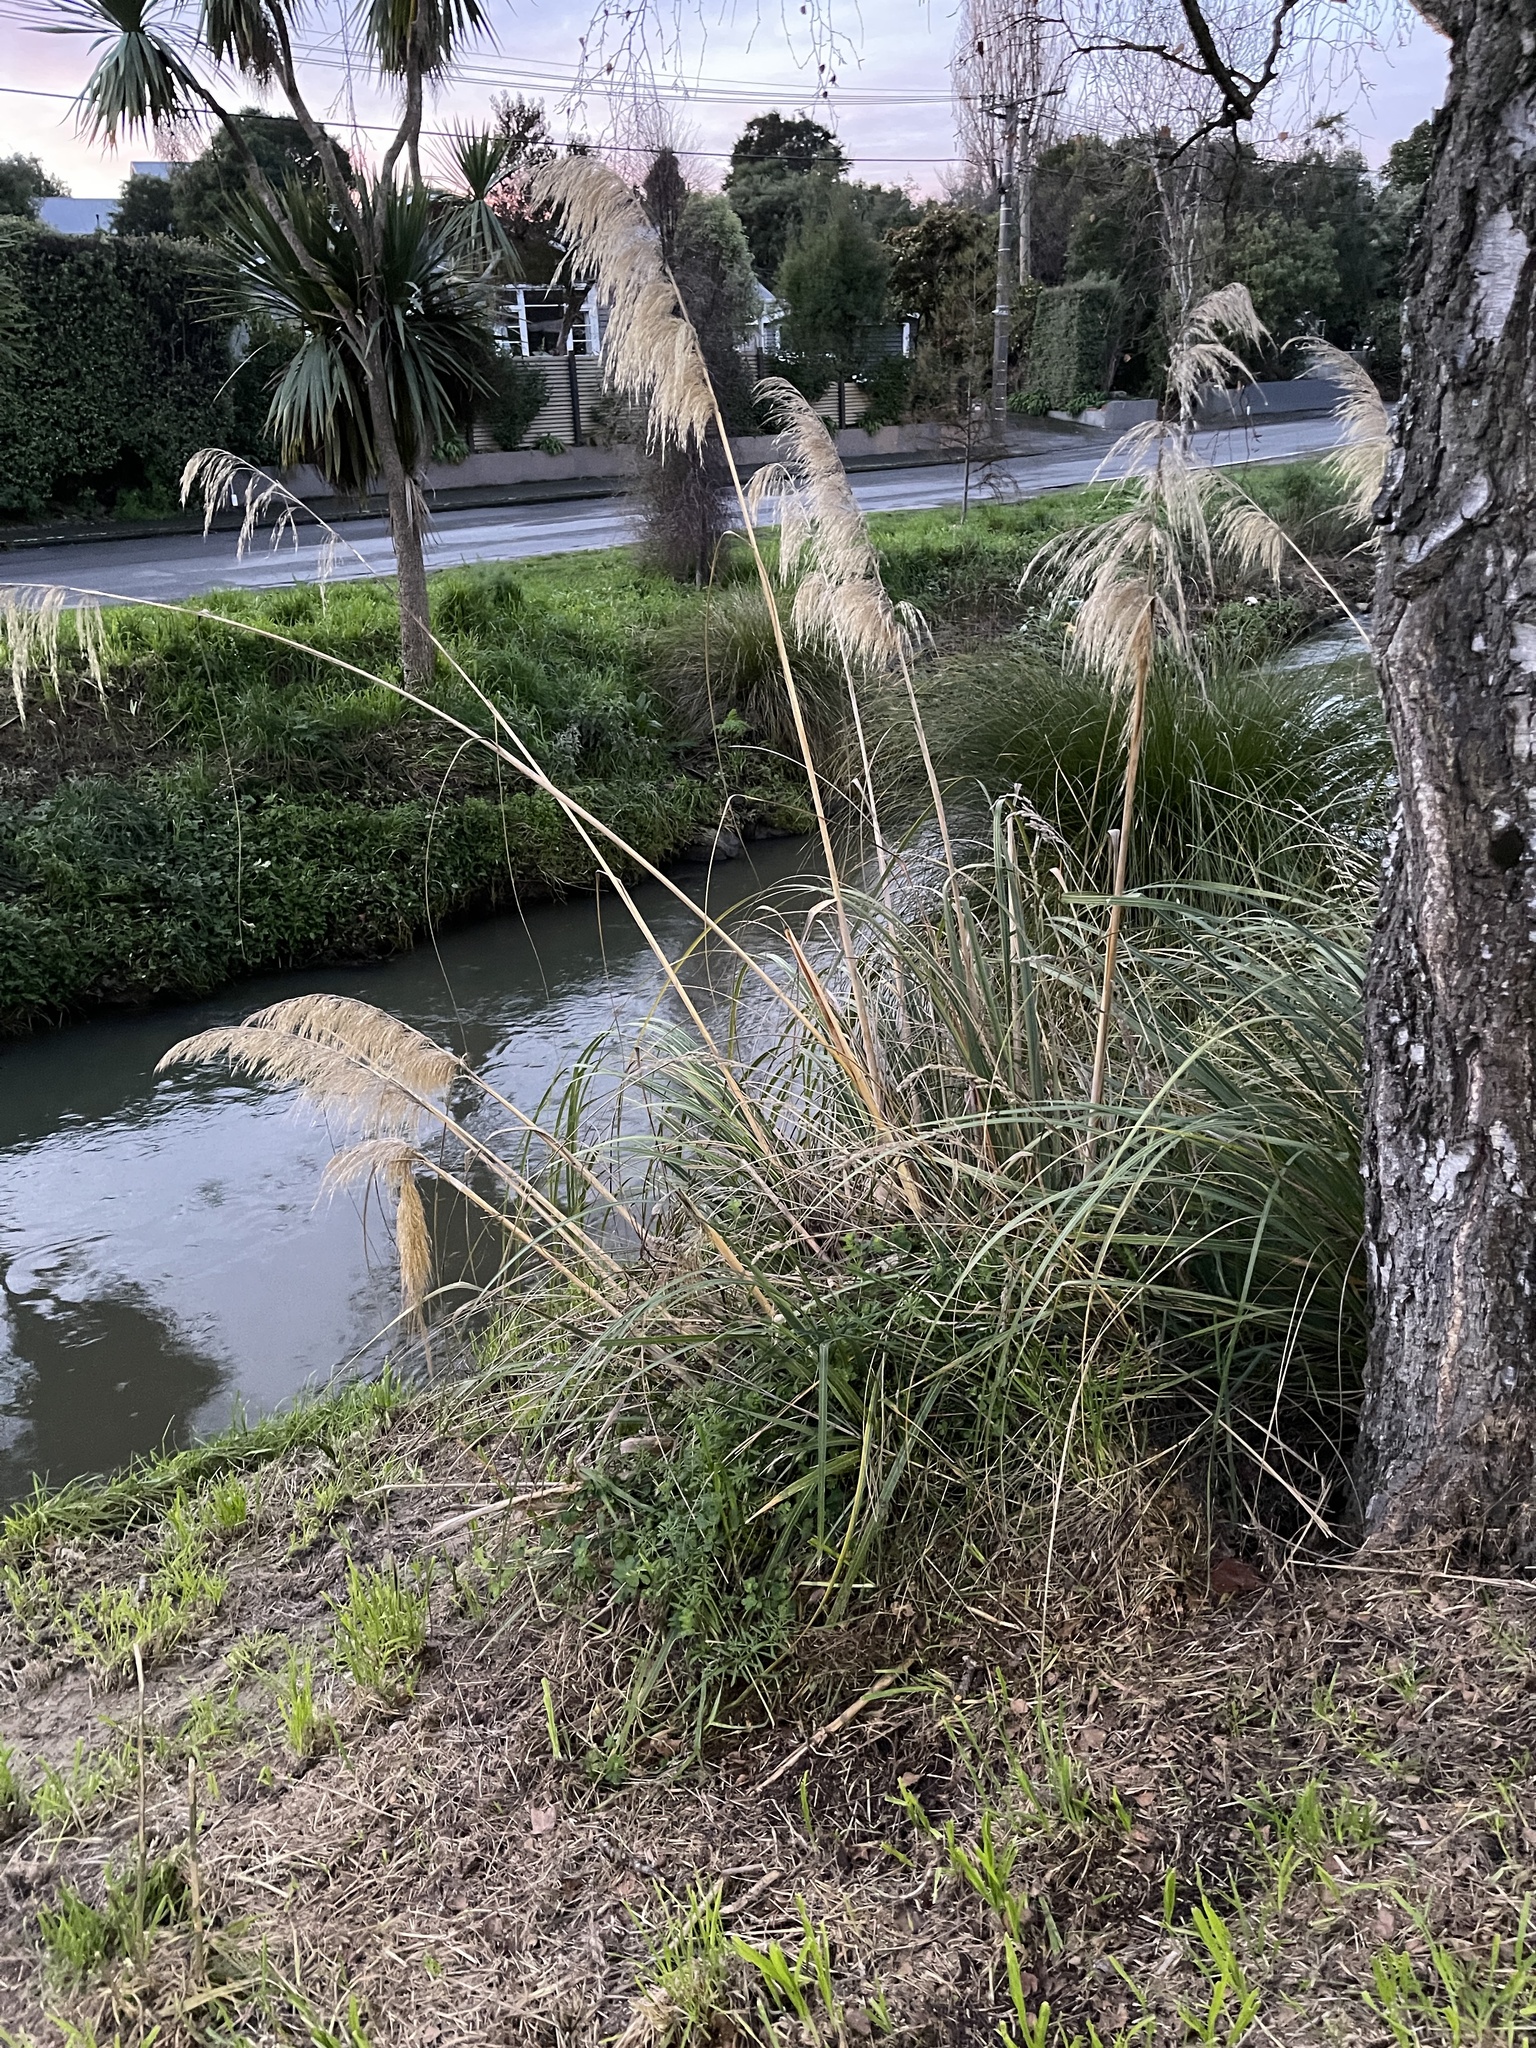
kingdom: Plantae
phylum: Tracheophyta
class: Liliopsida
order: Poales
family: Poaceae
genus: Austroderia
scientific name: Austroderia richardii
